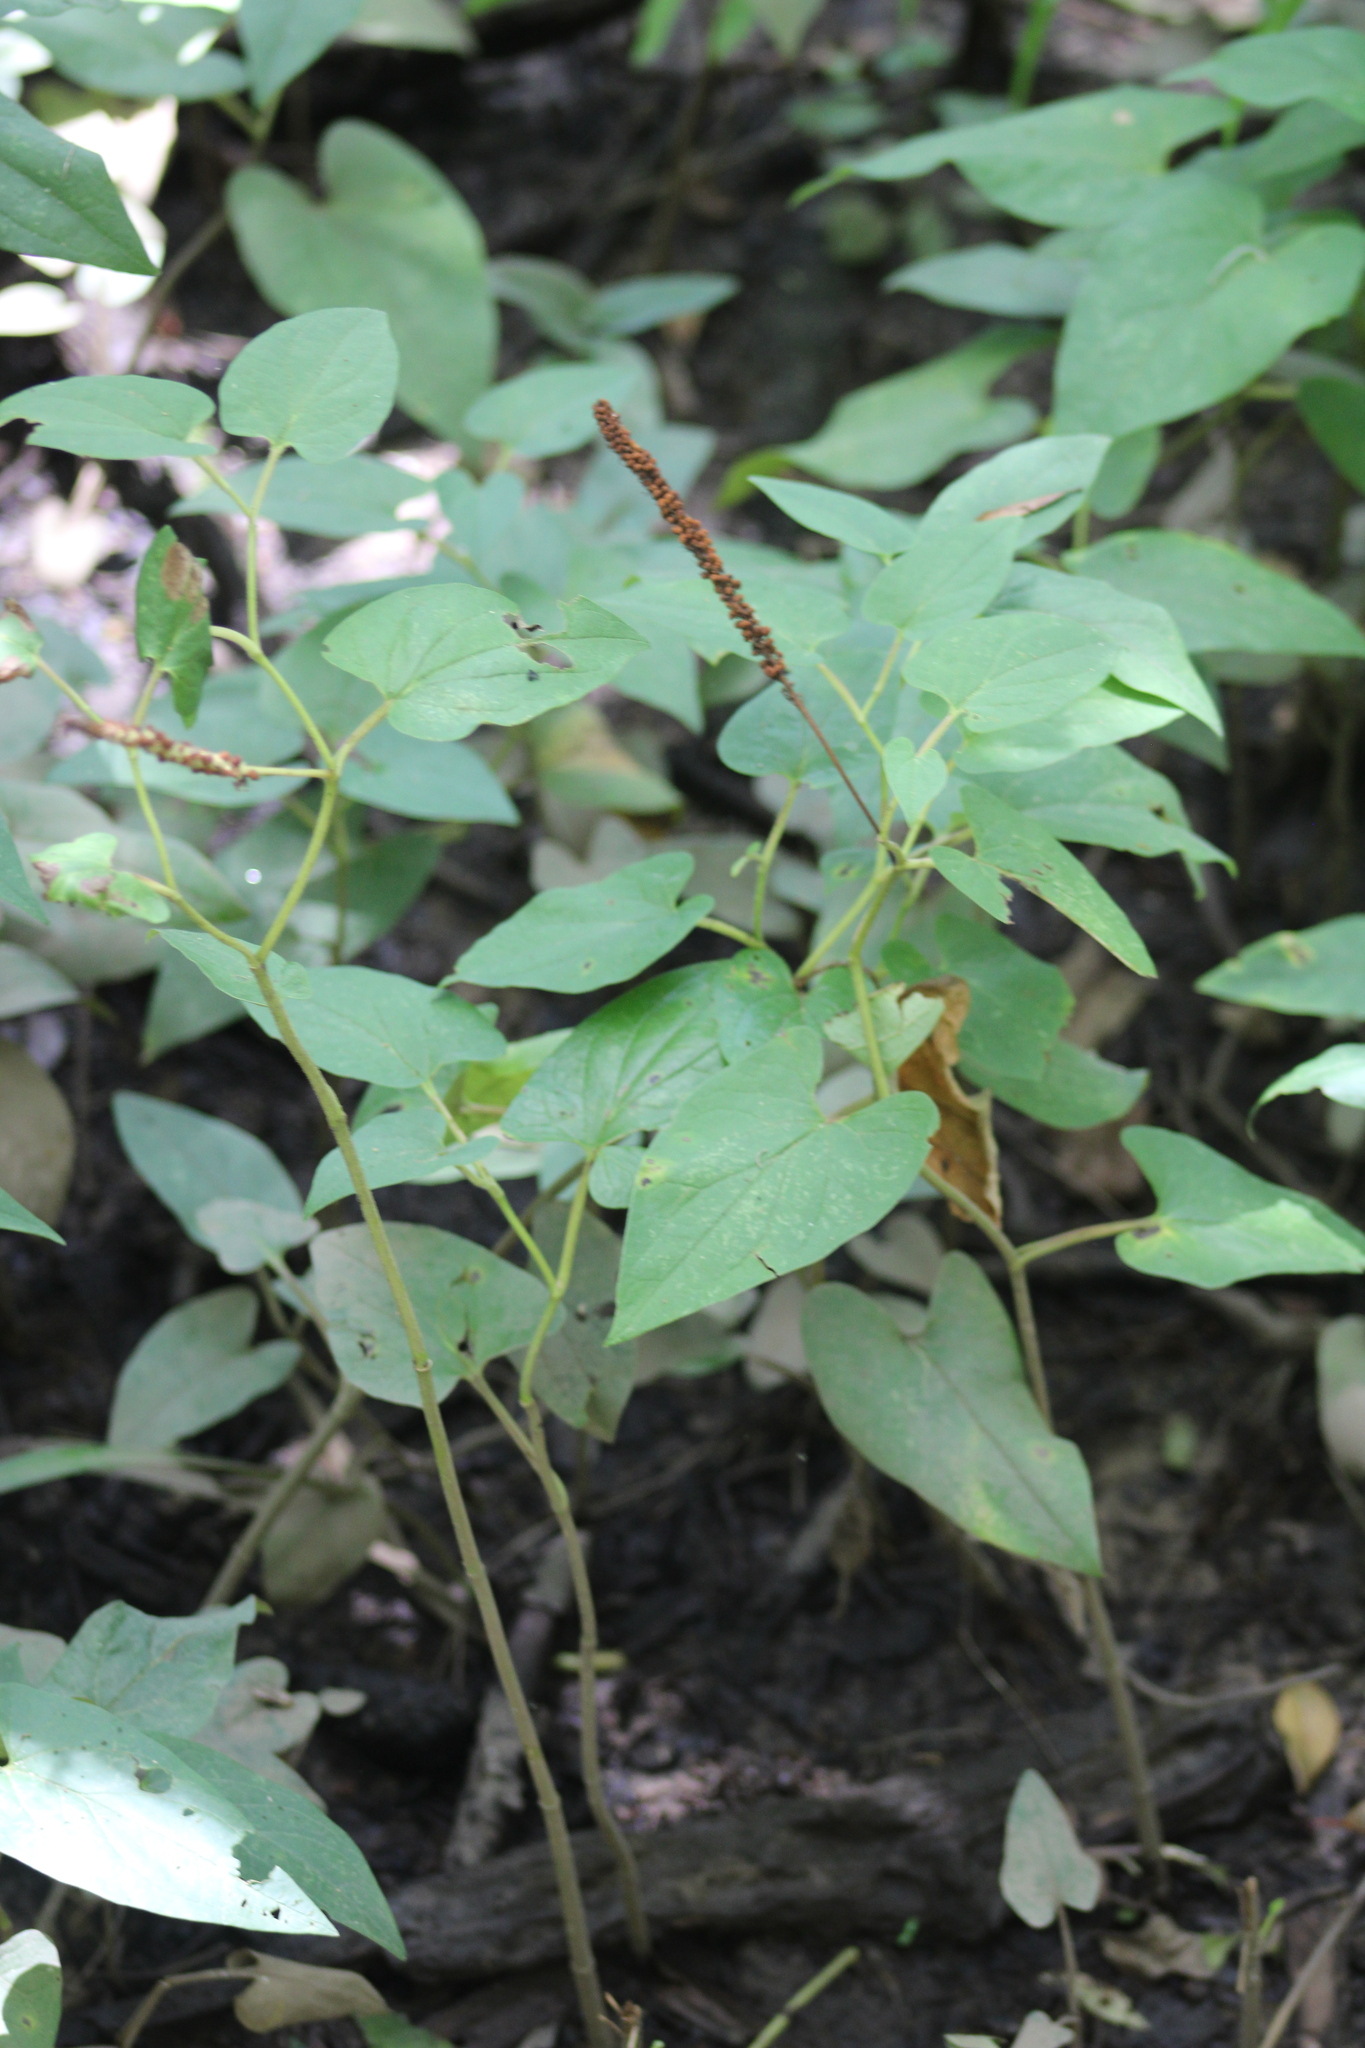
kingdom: Plantae
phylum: Tracheophyta
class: Magnoliopsida
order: Piperales
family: Saururaceae
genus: Saururus
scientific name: Saururus cernuus
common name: Lizard's-tail
